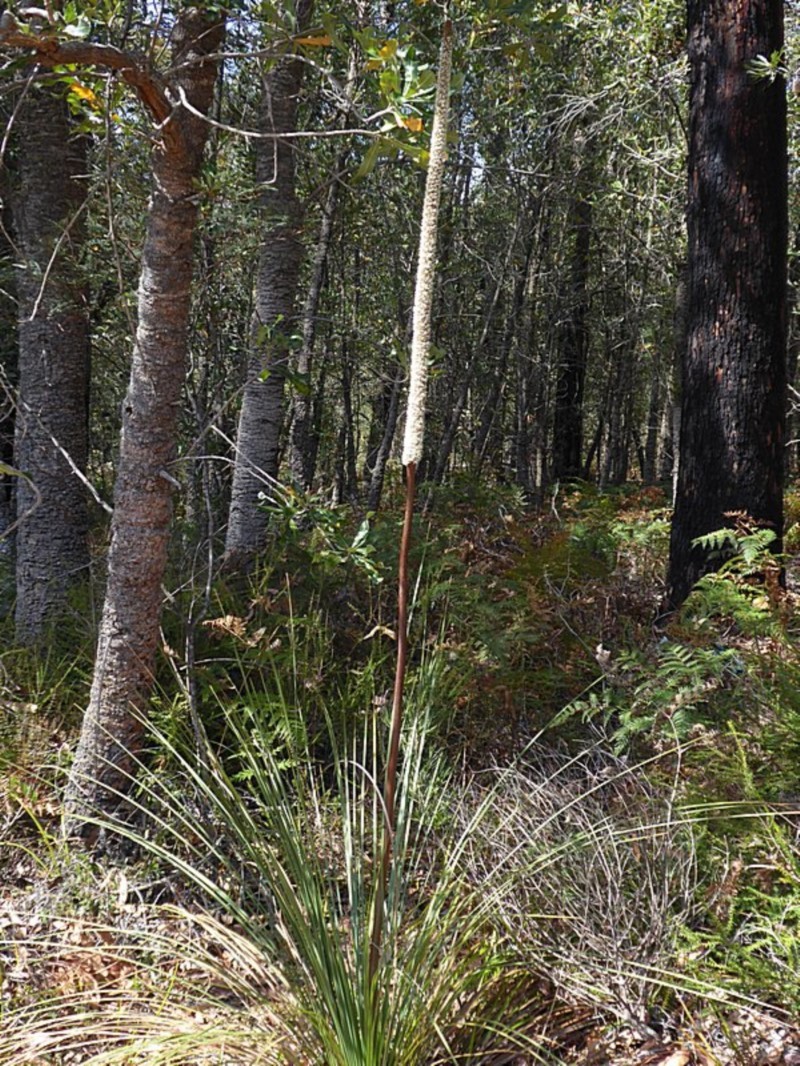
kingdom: Plantae
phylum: Tracheophyta
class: Liliopsida
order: Asparagales
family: Asphodelaceae
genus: Xanthorrhoea
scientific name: Xanthorrhoea concava
